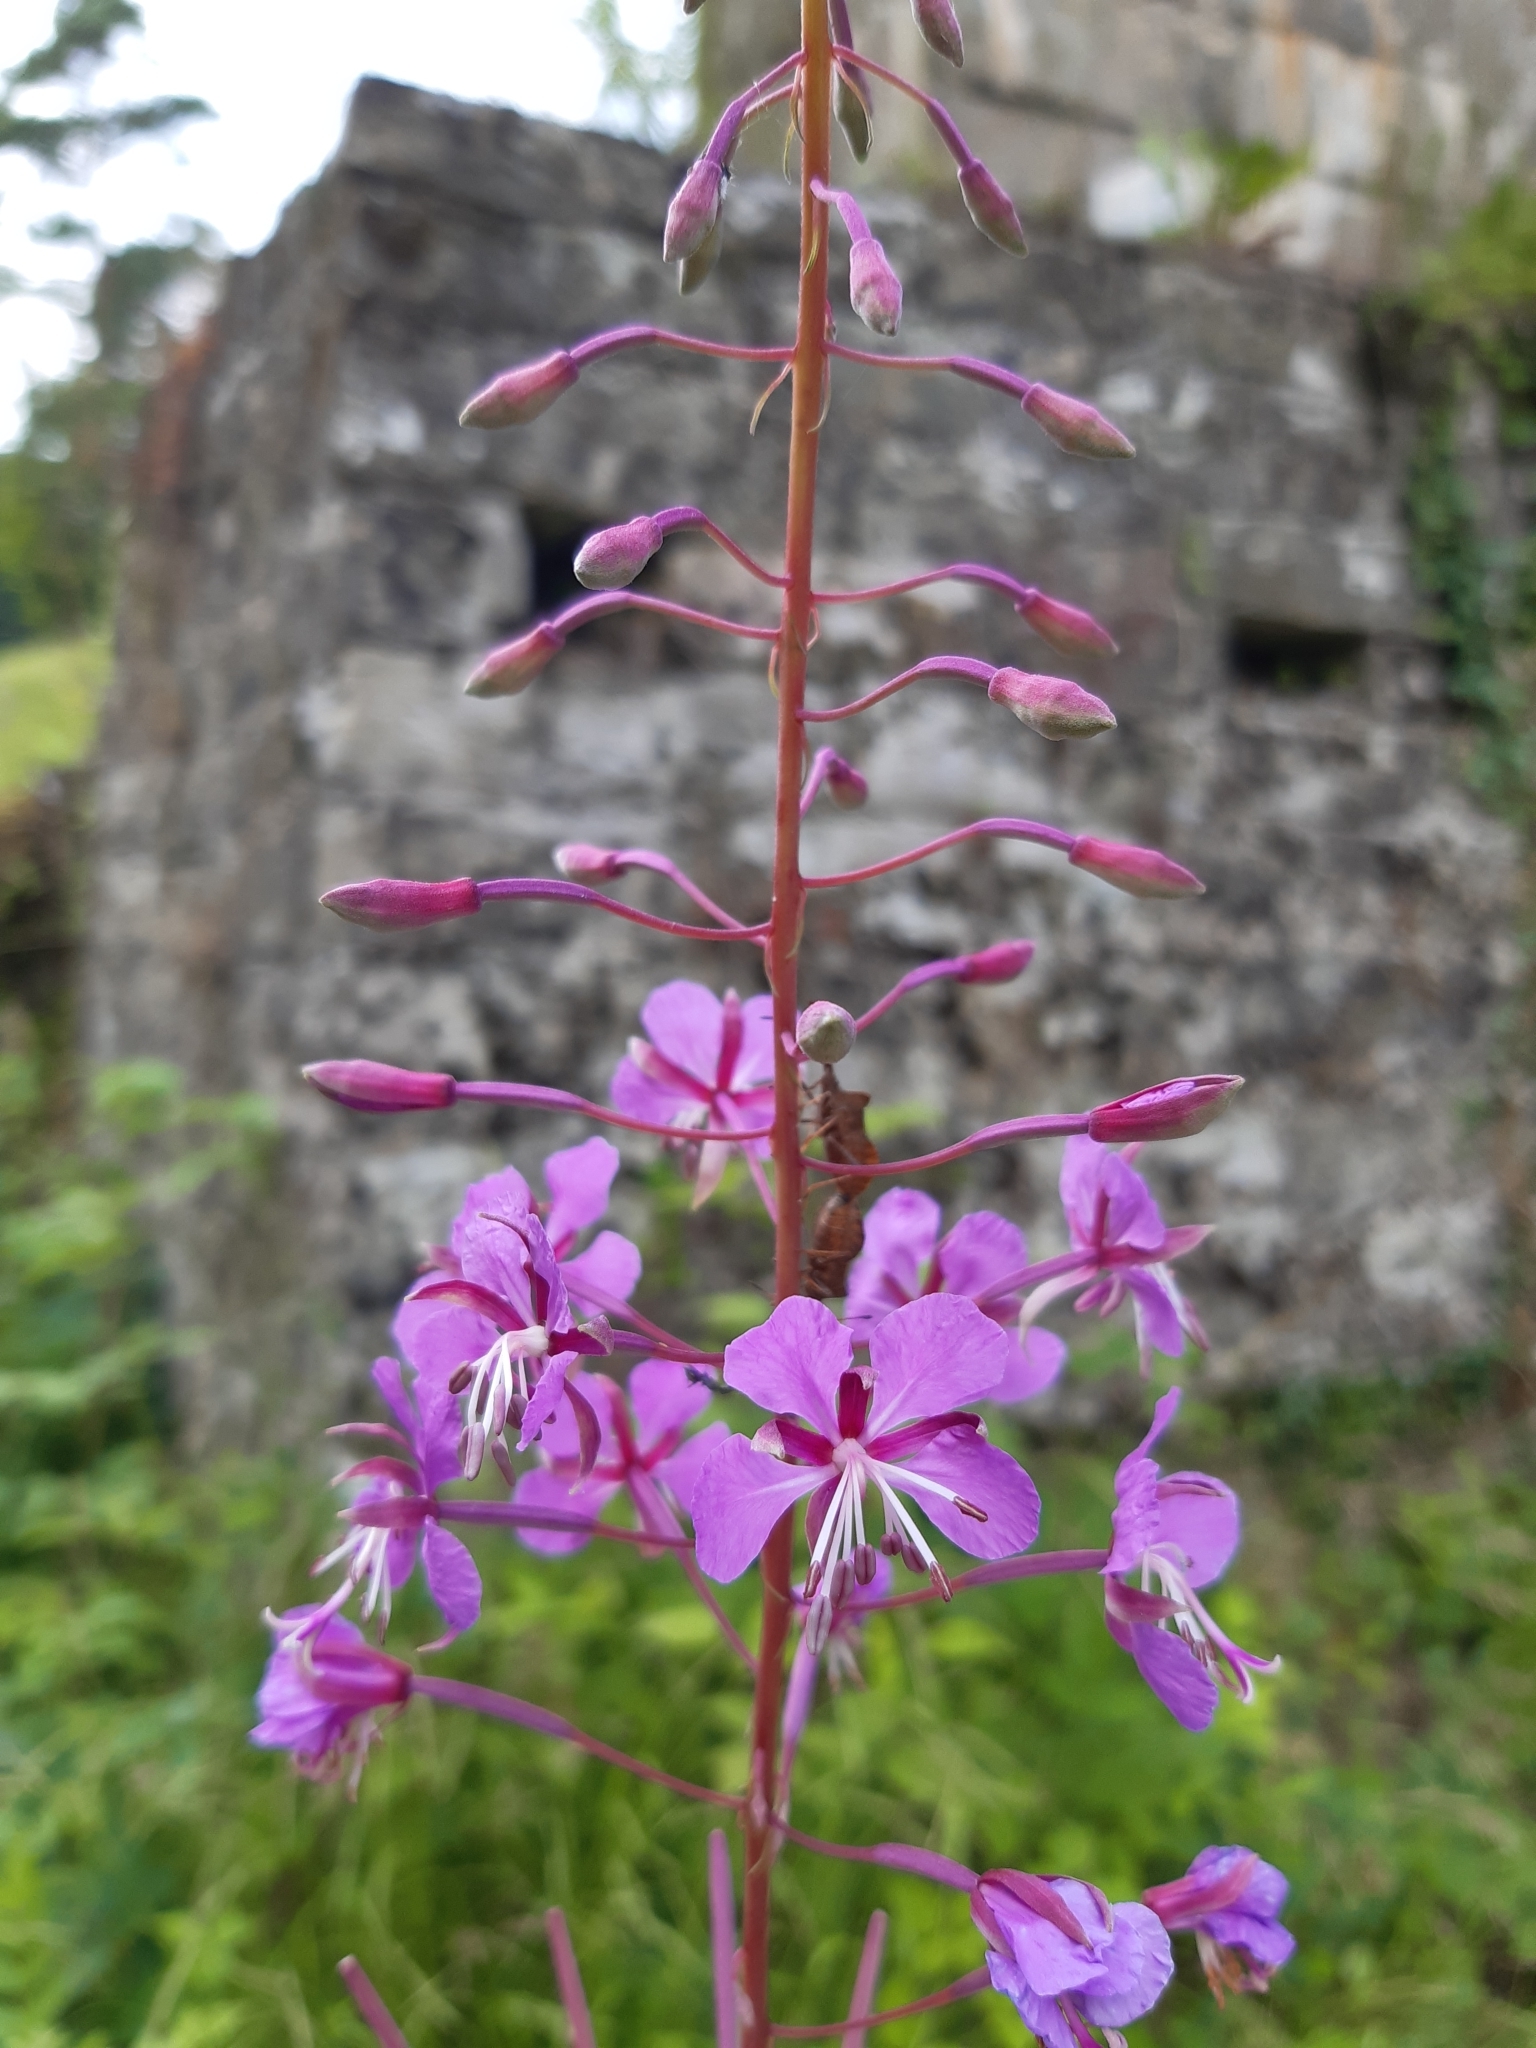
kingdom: Plantae
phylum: Tracheophyta
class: Magnoliopsida
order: Myrtales
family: Onagraceae
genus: Chamaenerion
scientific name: Chamaenerion angustifolium
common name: Fireweed
